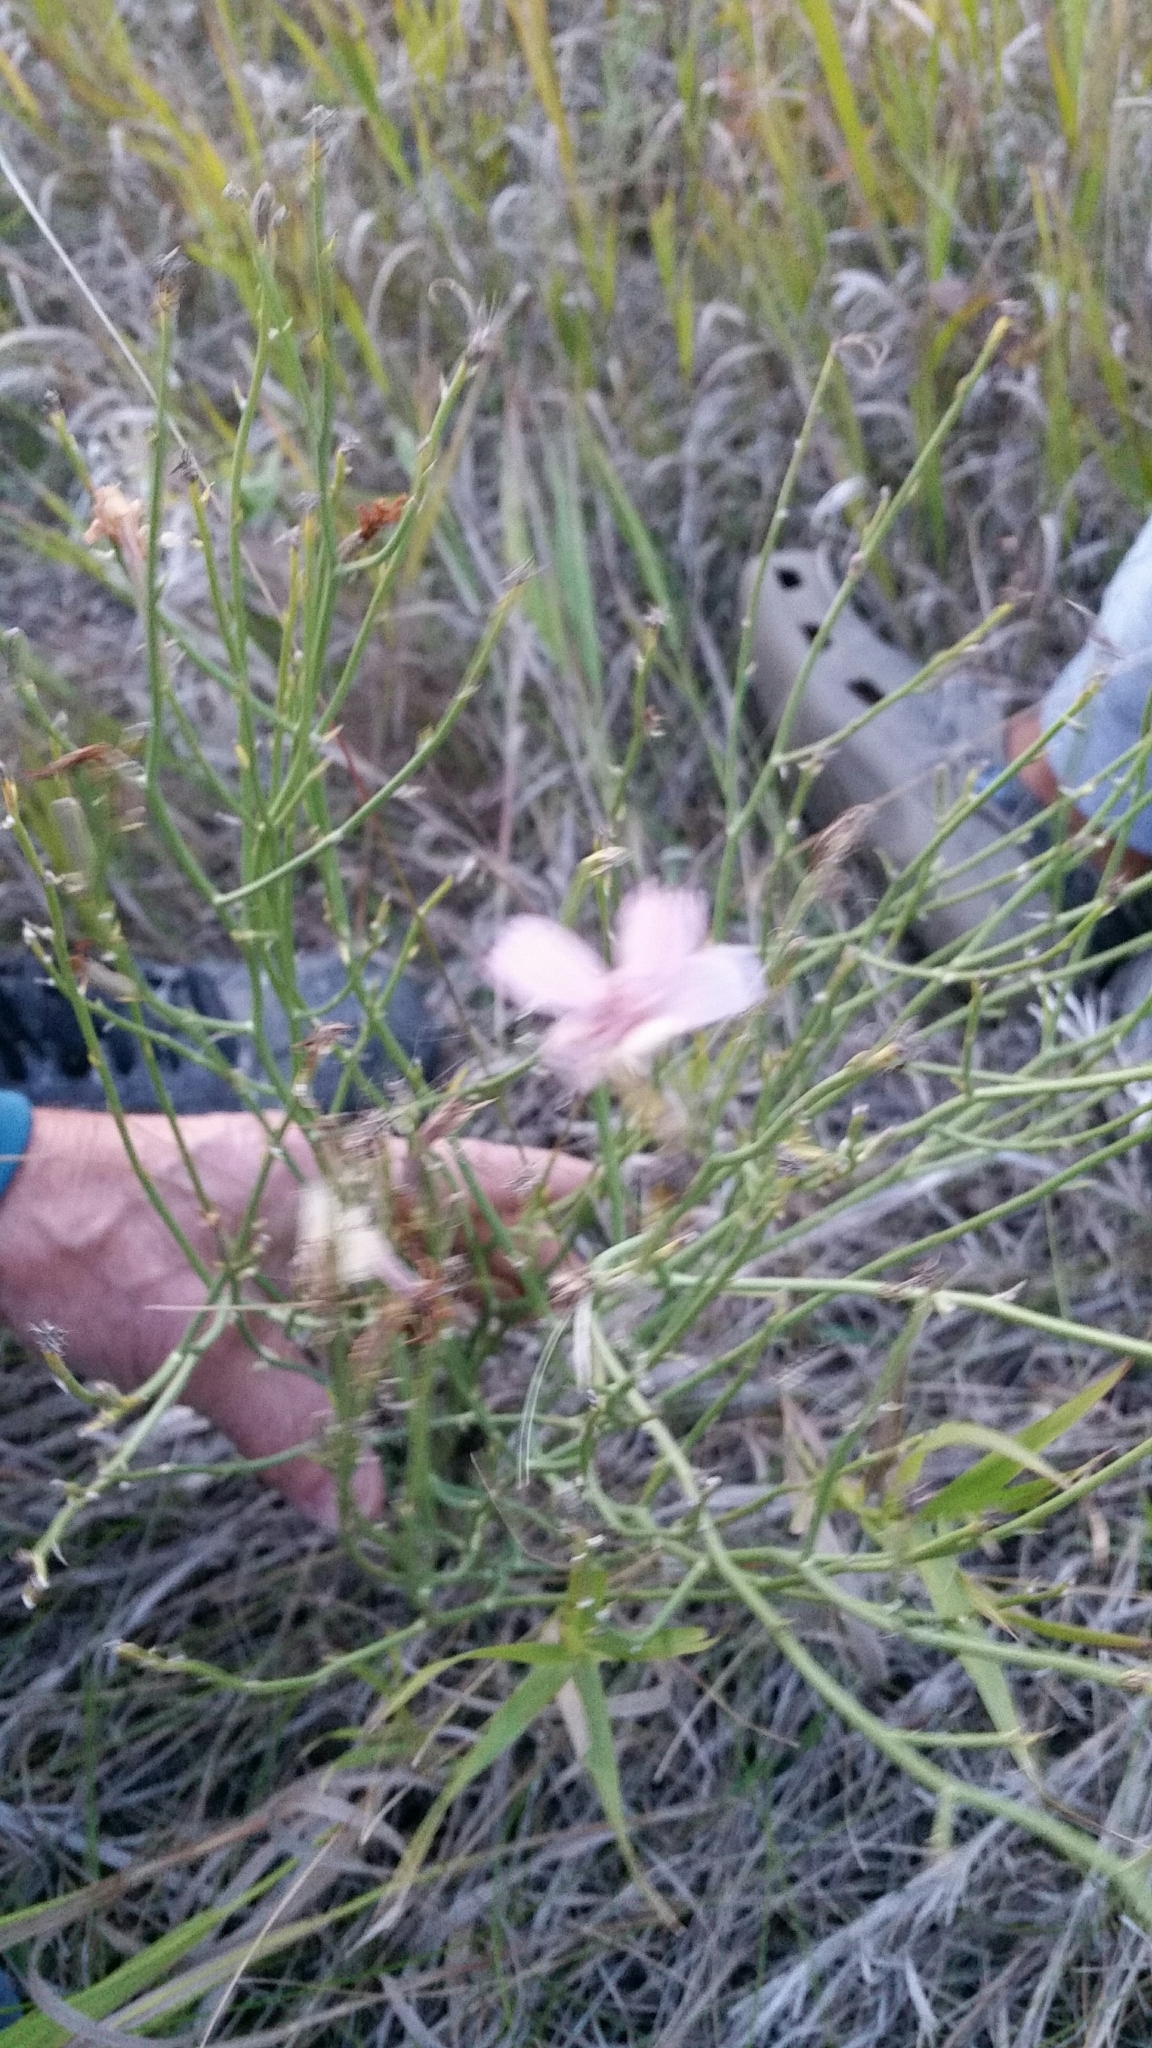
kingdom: Plantae
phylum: Tracheophyta
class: Magnoliopsida
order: Asterales
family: Asteraceae
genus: Lygodesmia
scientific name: Lygodesmia juncea
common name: Common skeletonweed
